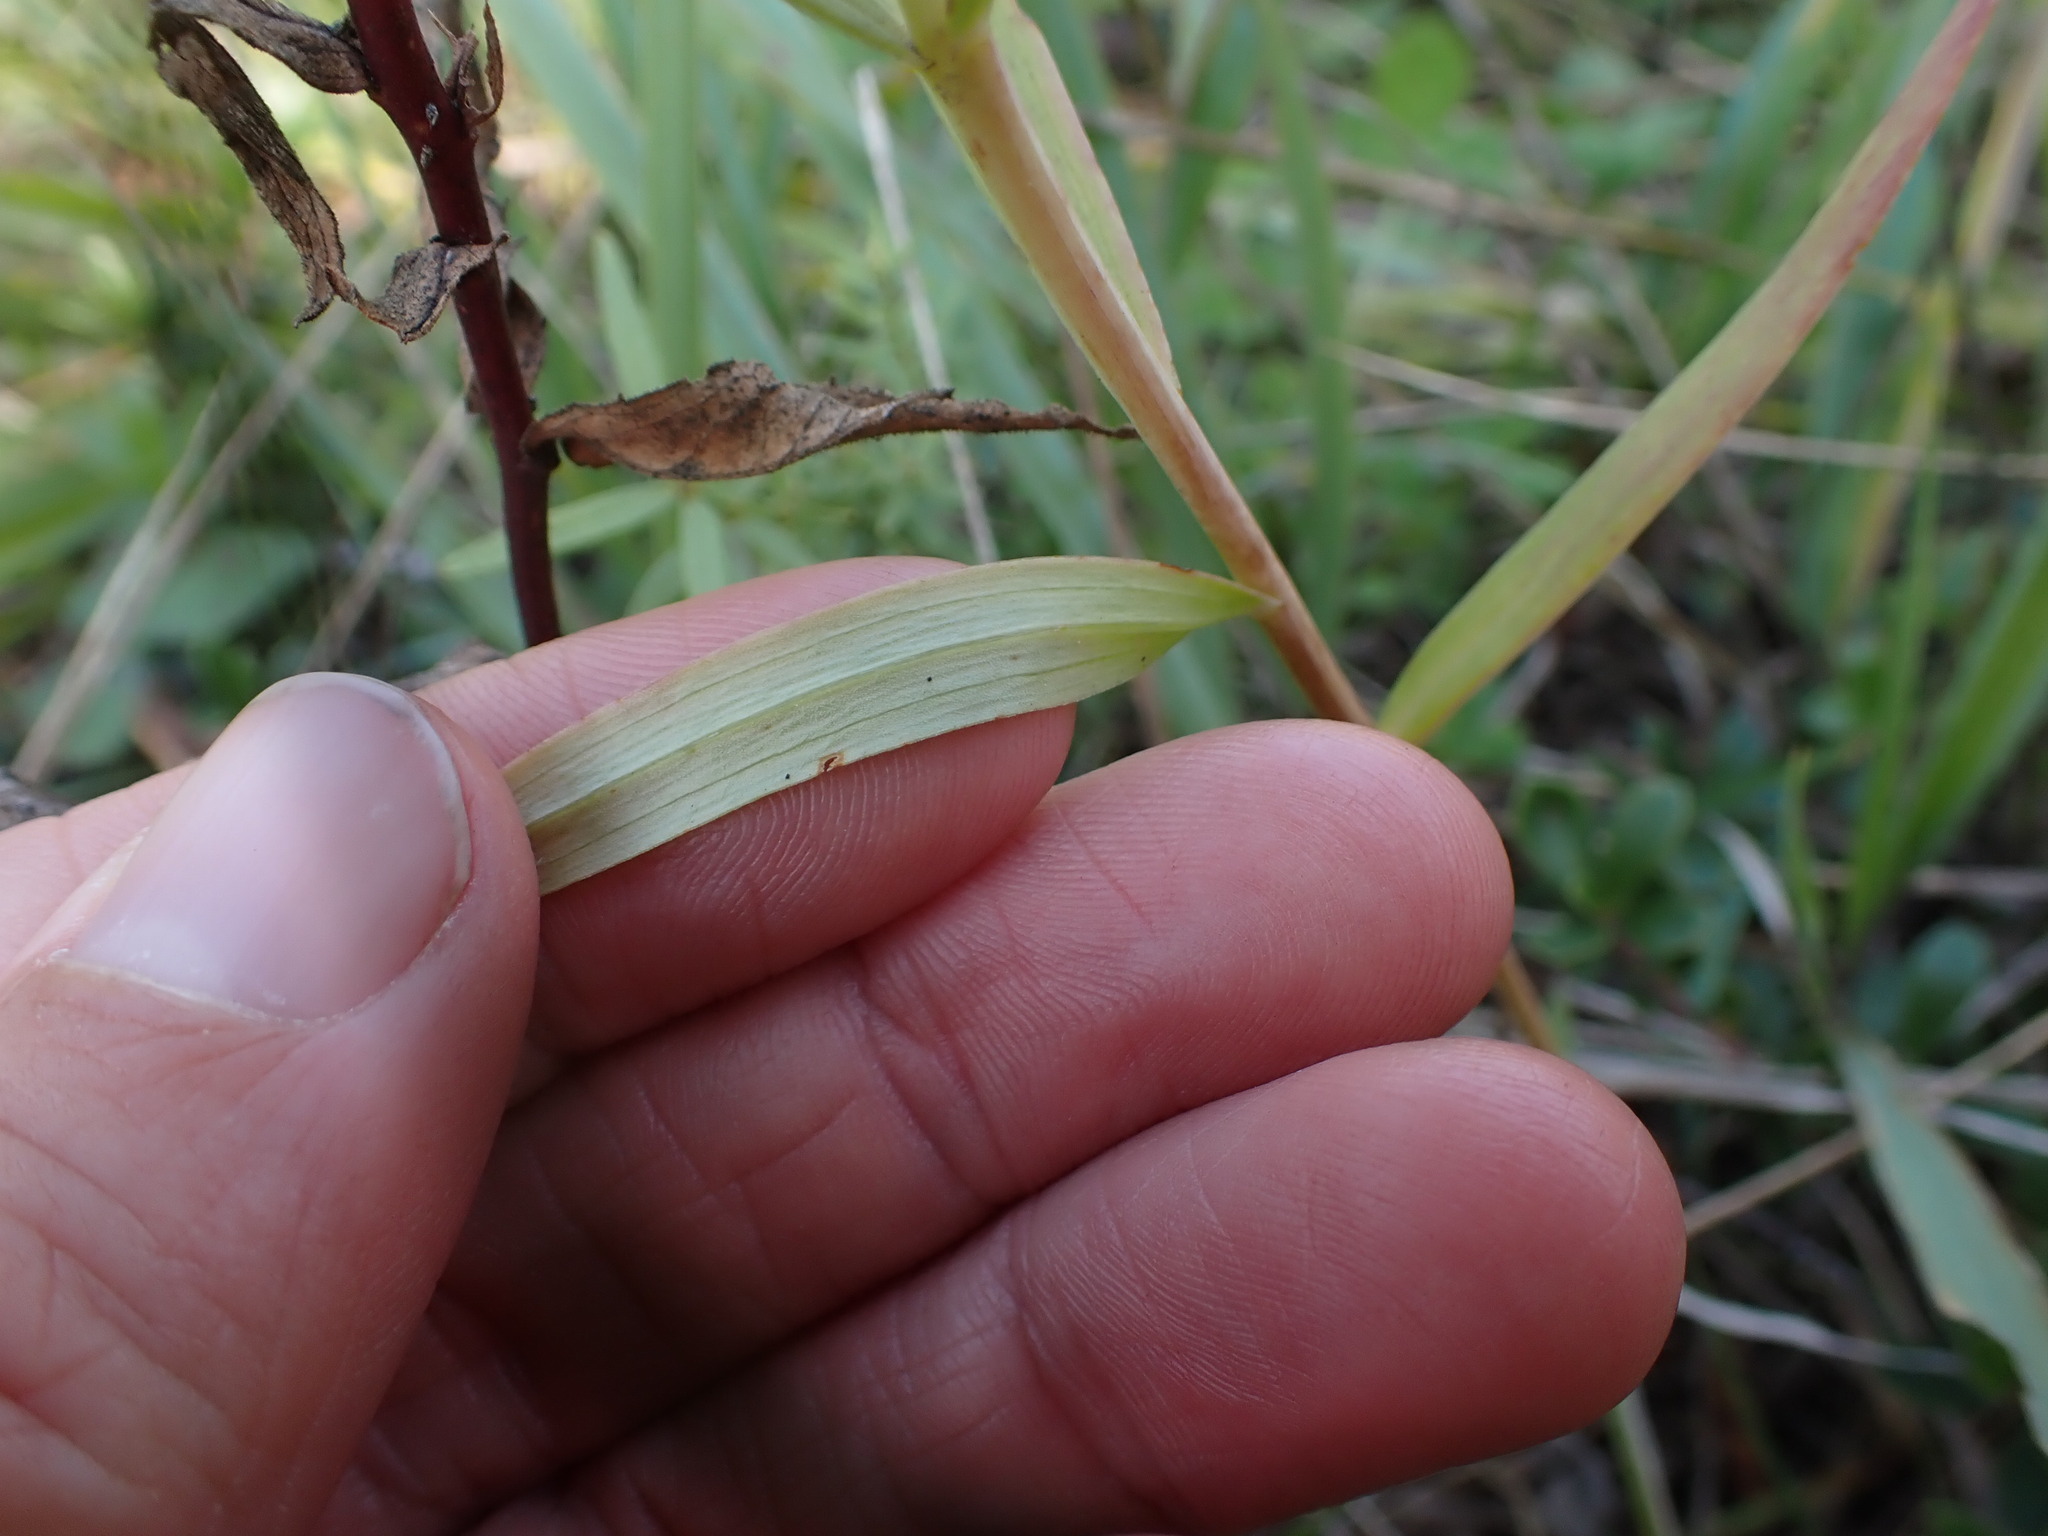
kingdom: Plantae
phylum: Tracheophyta
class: Liliopsida
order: Liliales
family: Liliaceae
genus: Lilium
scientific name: Lilium philadelphicum
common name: Red lily
